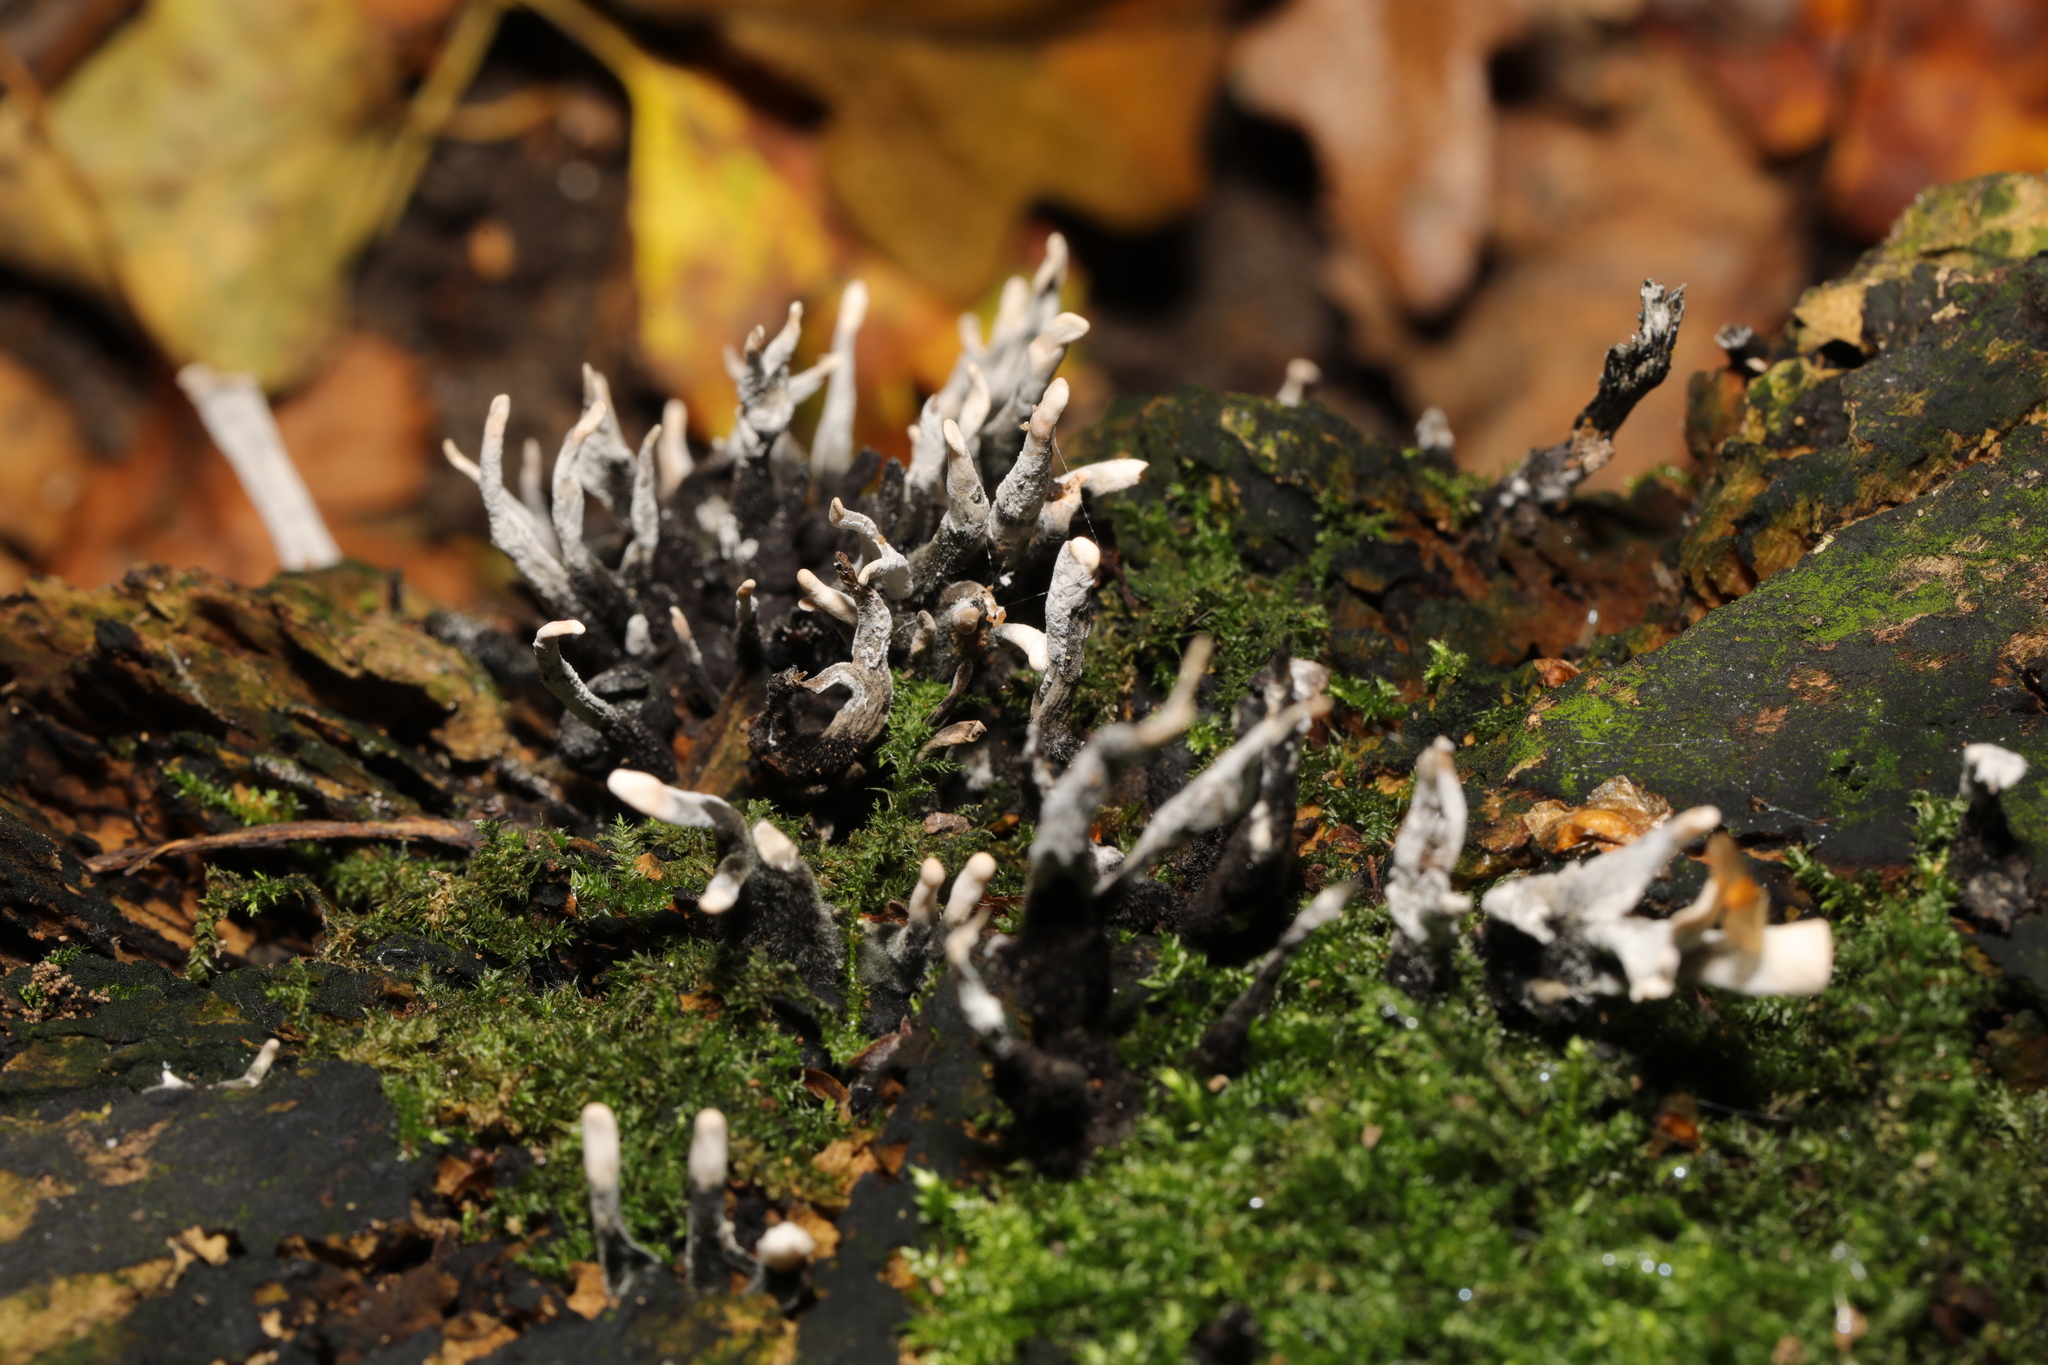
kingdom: Fungi
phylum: Ascomycota
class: Sordariomycetes
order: Xylariales
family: Xylariaceae
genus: Xylaria
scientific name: Xylaria hypoxylon
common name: Candle-snuff fungus
